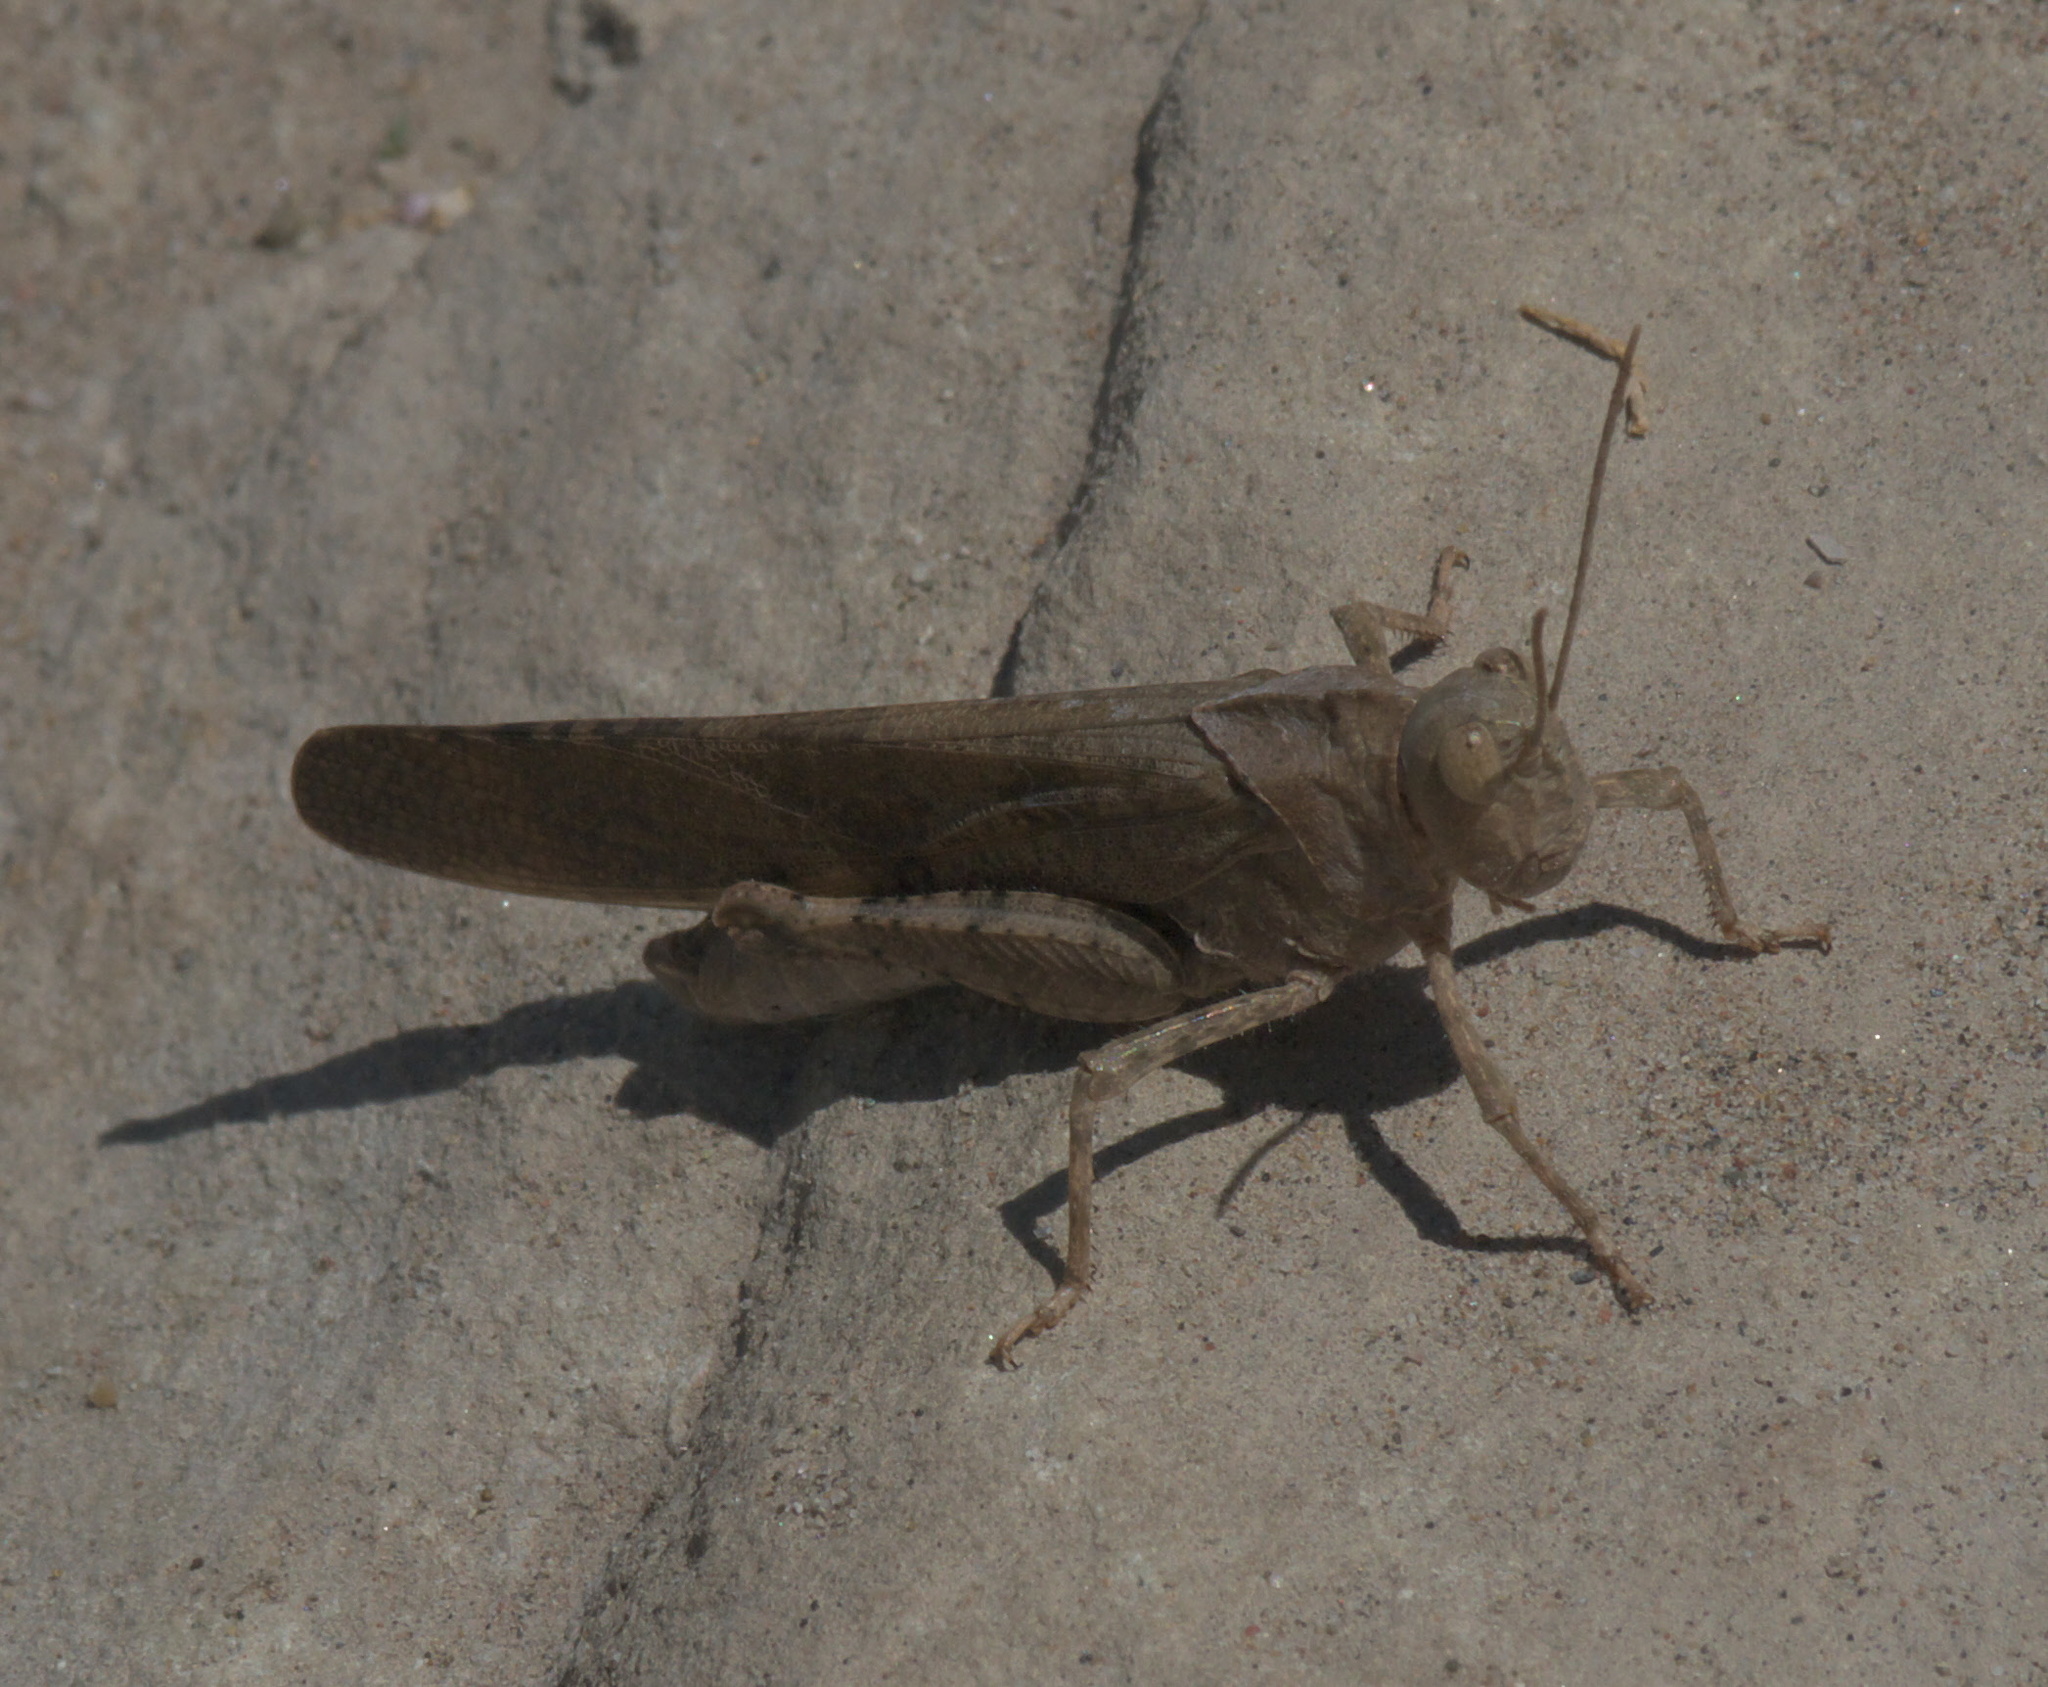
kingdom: Animalia
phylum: Arthropoda
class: Insecta
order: Orthoptera
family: Acrididae
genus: Dissosteira
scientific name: Dissosteira carolina
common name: Carolina grasshopper
